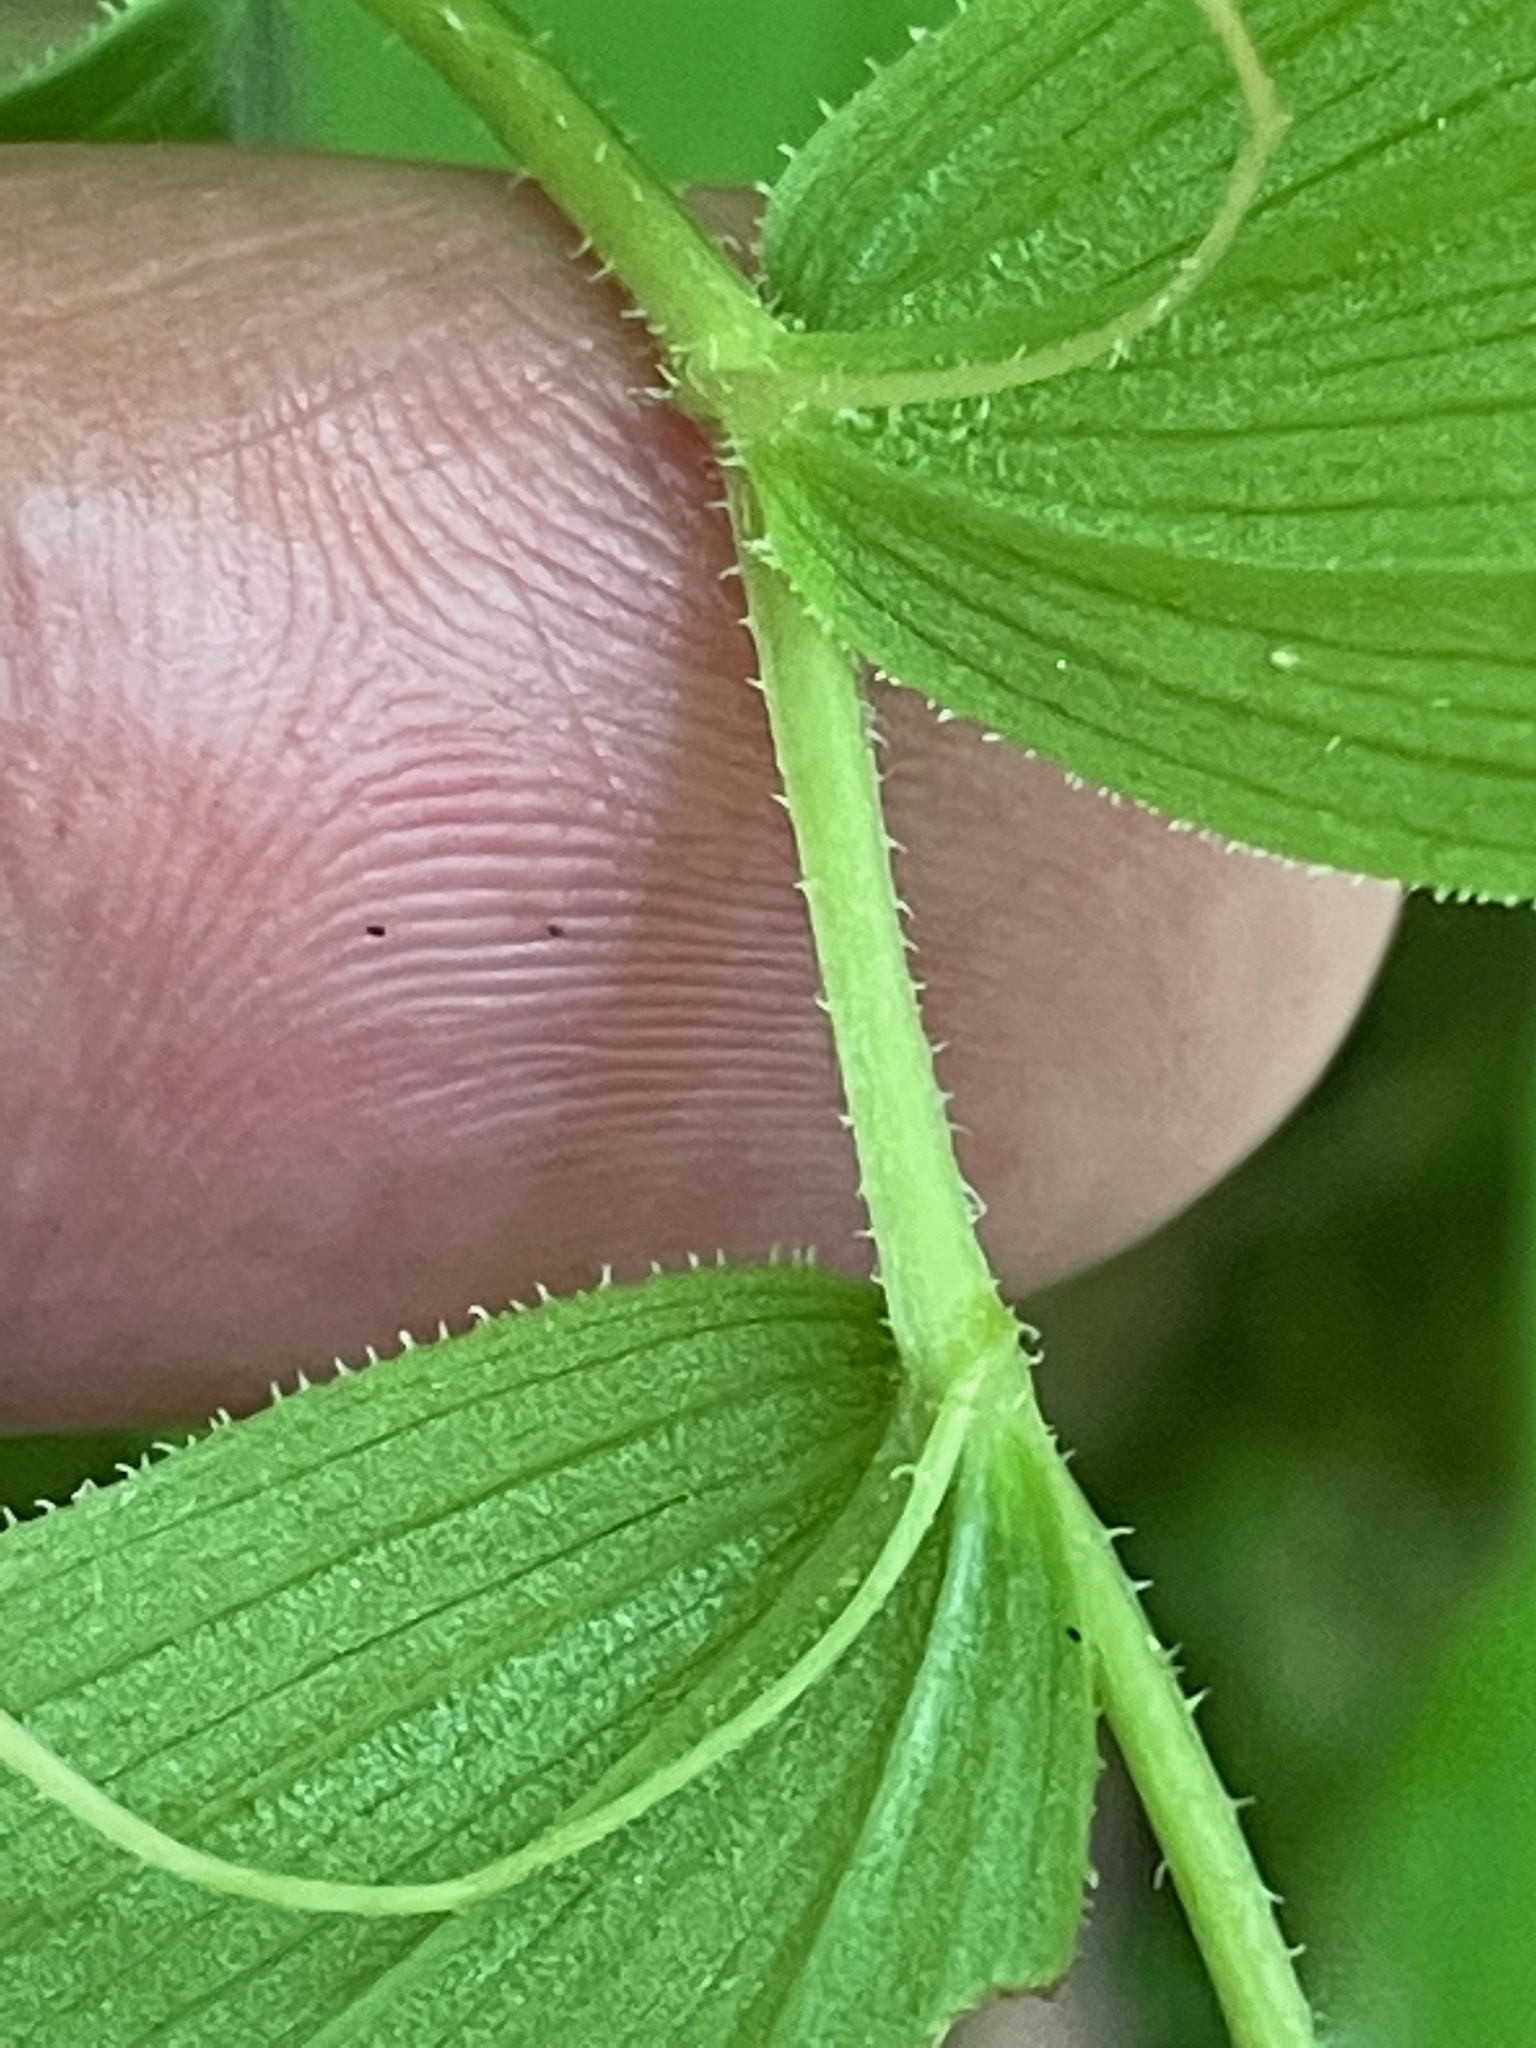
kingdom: Plantae
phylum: Tracheophyta
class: Liliopsida
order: Liliales
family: Liliaceae
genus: Streptopus
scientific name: Streptopus lanceolatus
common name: Rose mandarin
